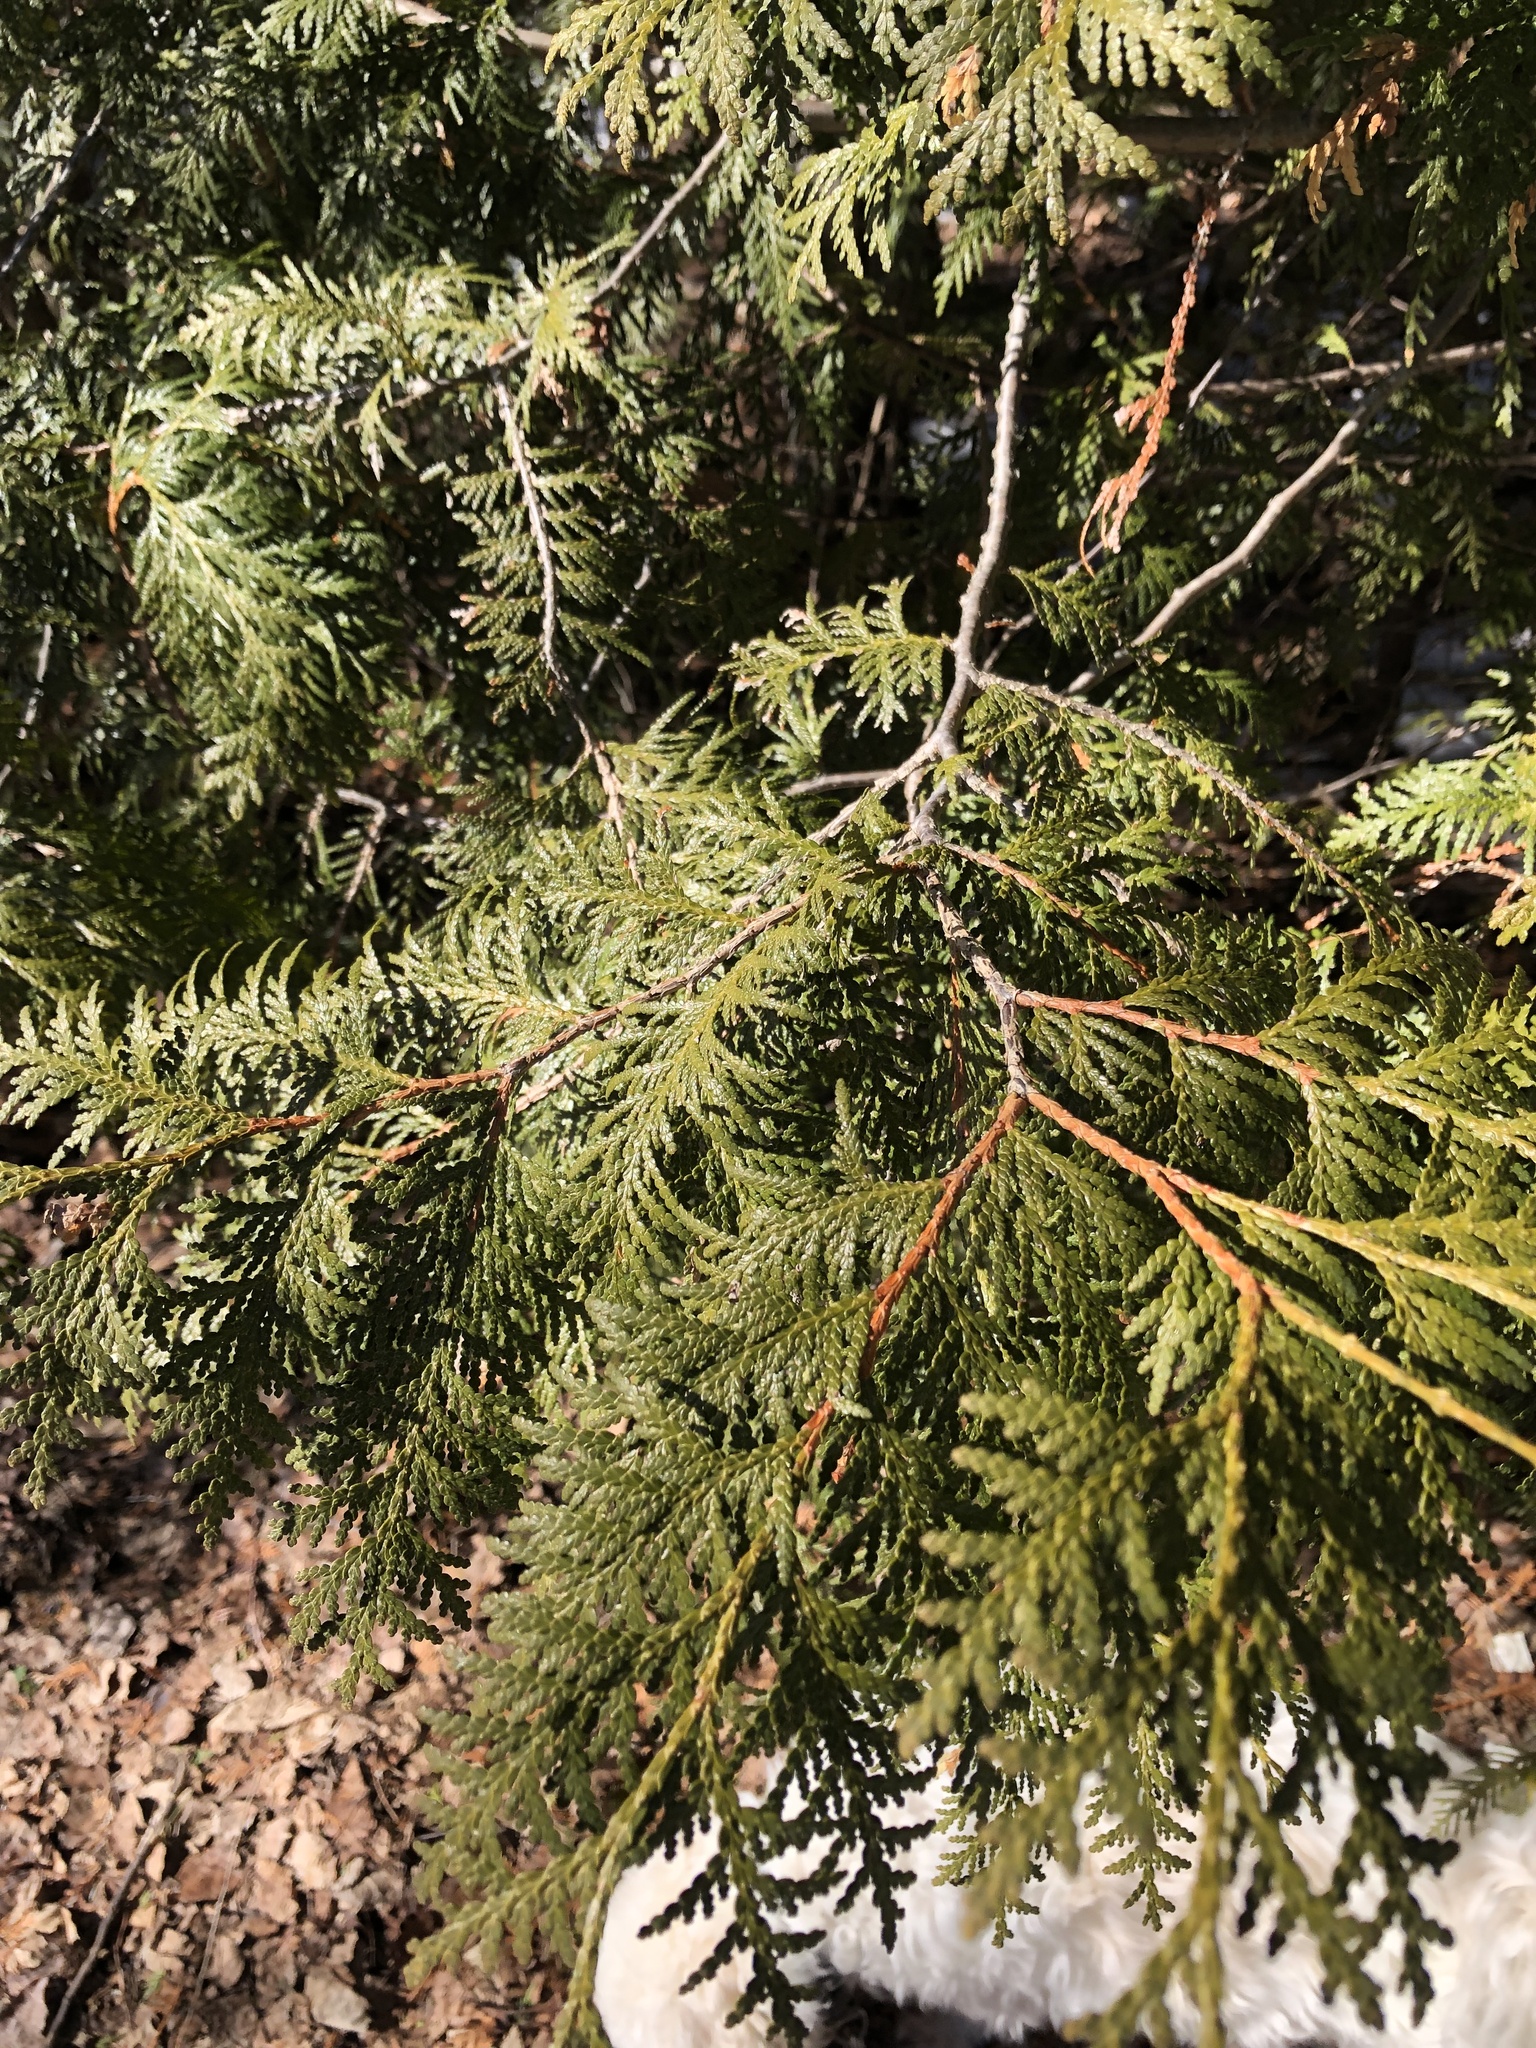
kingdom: Plantae
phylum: Tracheophyta
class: Pinopsida
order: Pinales
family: Cupressaceae
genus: Thuja
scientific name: Thuja occidentalis
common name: Northern white-cedar
